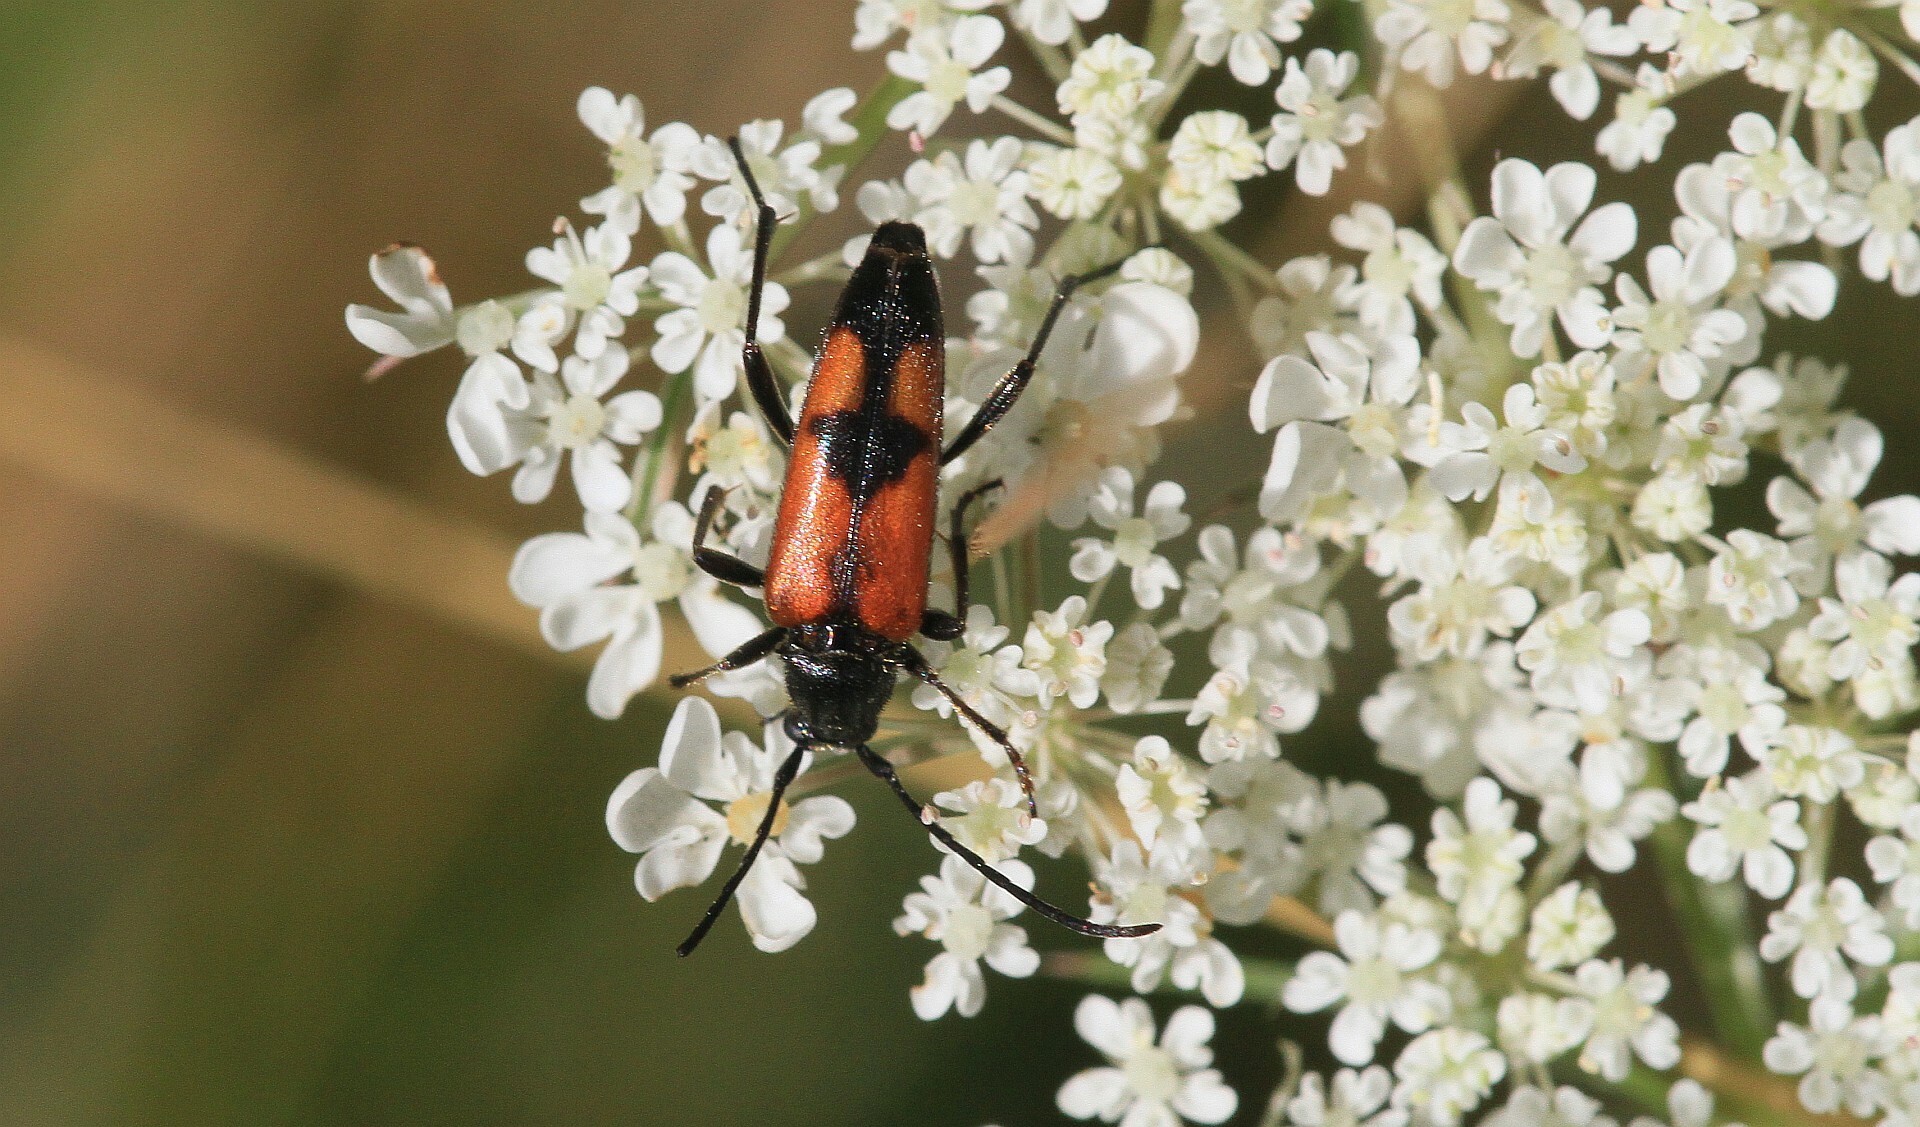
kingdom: Animalia
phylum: Arthropoda
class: Insecta
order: Coleoptera
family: Cerambycidae
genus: Stenurella
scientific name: Stenurella bifasciata
